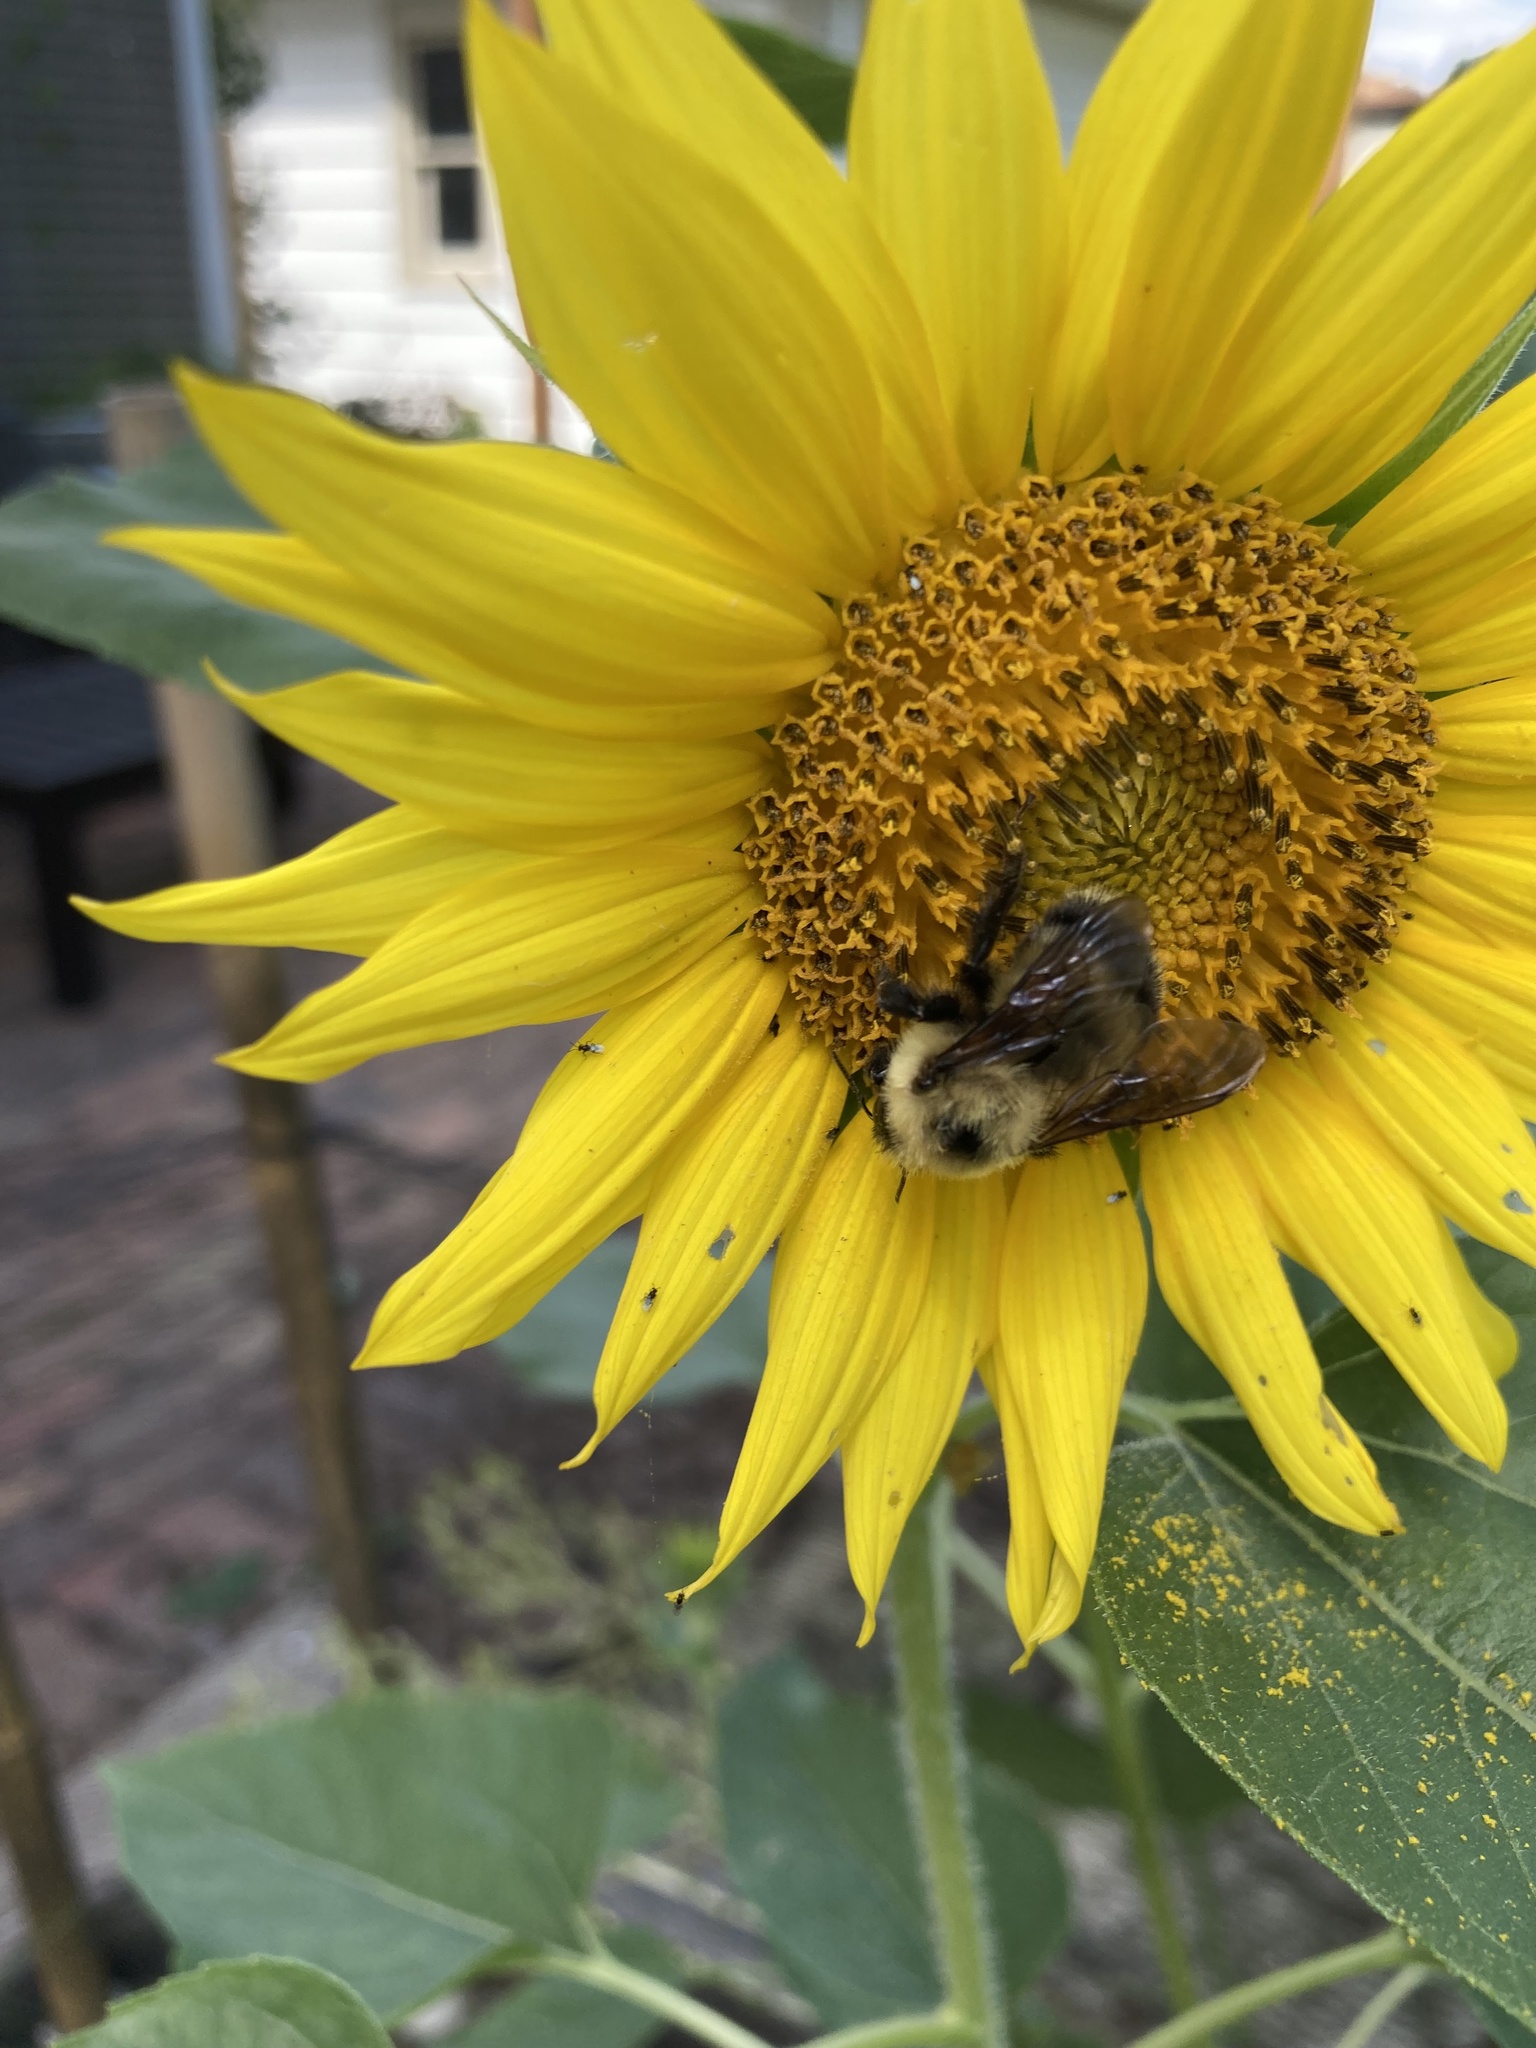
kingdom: Animalia
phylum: Arthropoda
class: Insecta
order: Hymenoptera
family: Apidae
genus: Bombus
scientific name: Bombus rufocinctus
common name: Red-belted bumble bee
